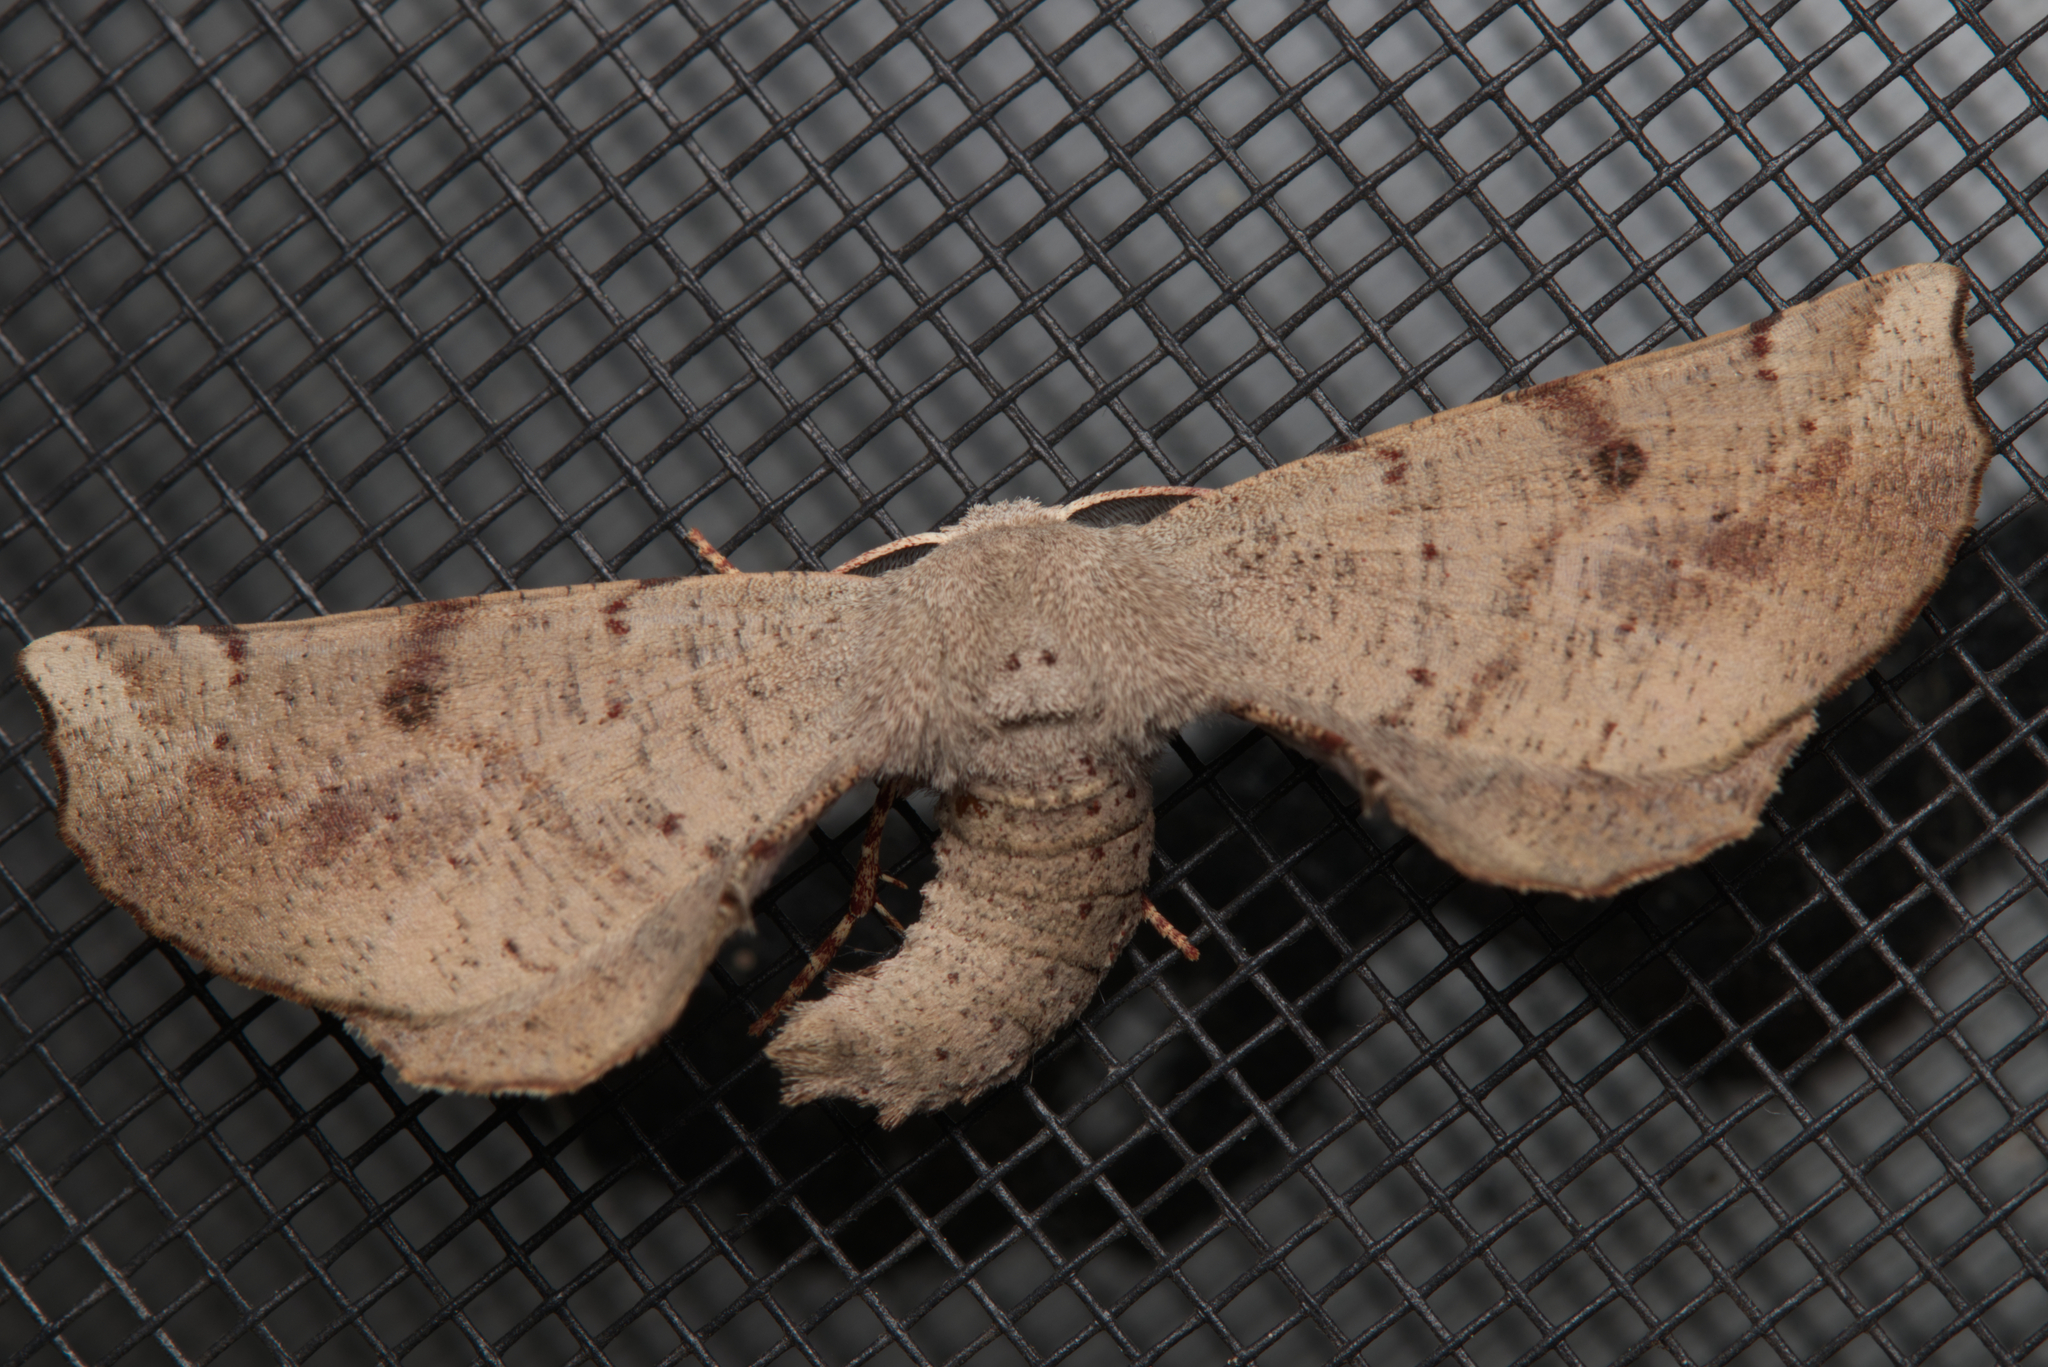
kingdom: Animalia
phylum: Arthropoda
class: Insecta
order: Lepidoptera
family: Geometridae
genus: Circopetes
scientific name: Circopetes obtusata
